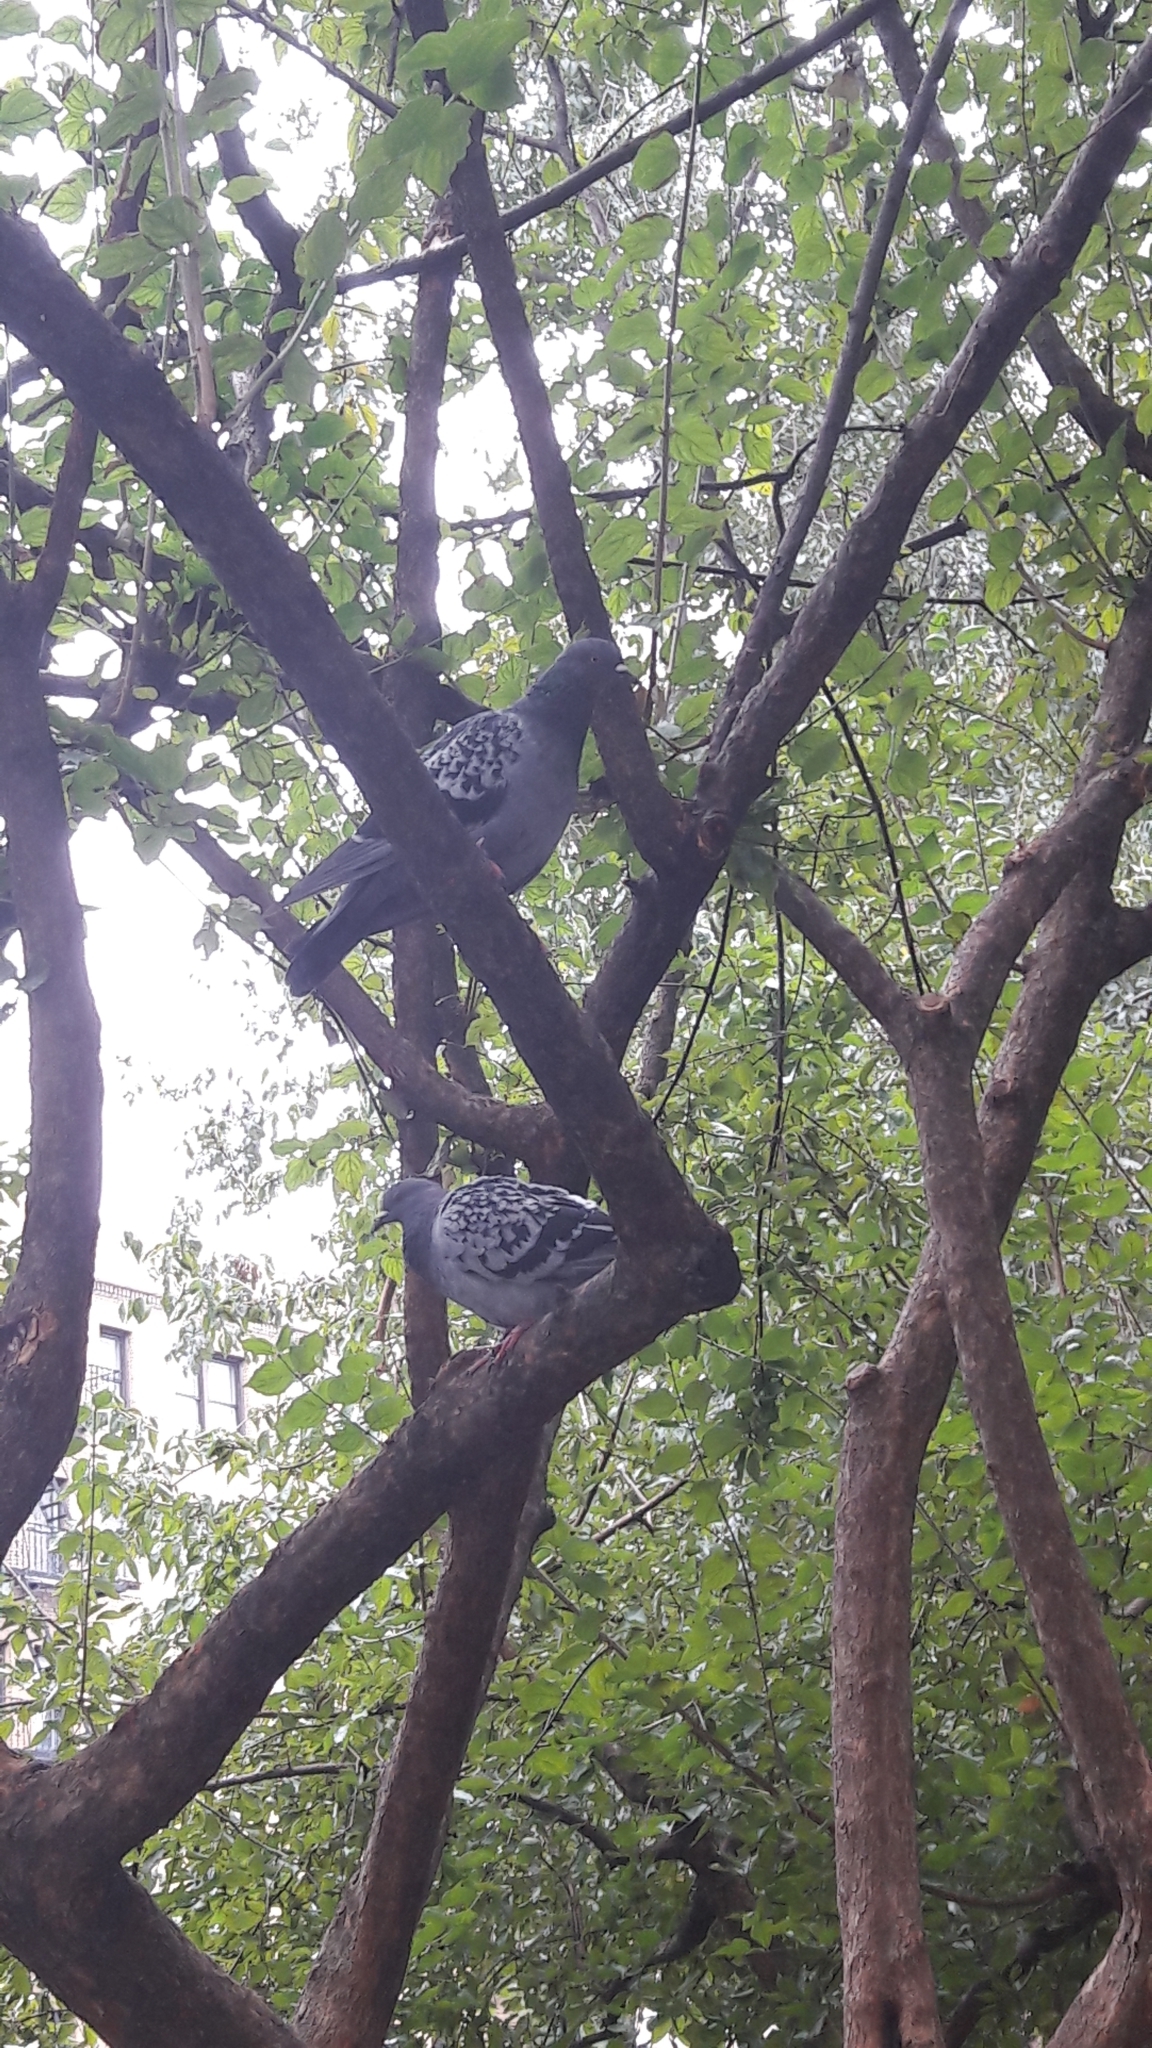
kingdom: Animalia
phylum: Chordata
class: Aves
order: Columbiformes
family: Columbidae
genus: Columba
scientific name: Columba livia
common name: Rock pigeon
